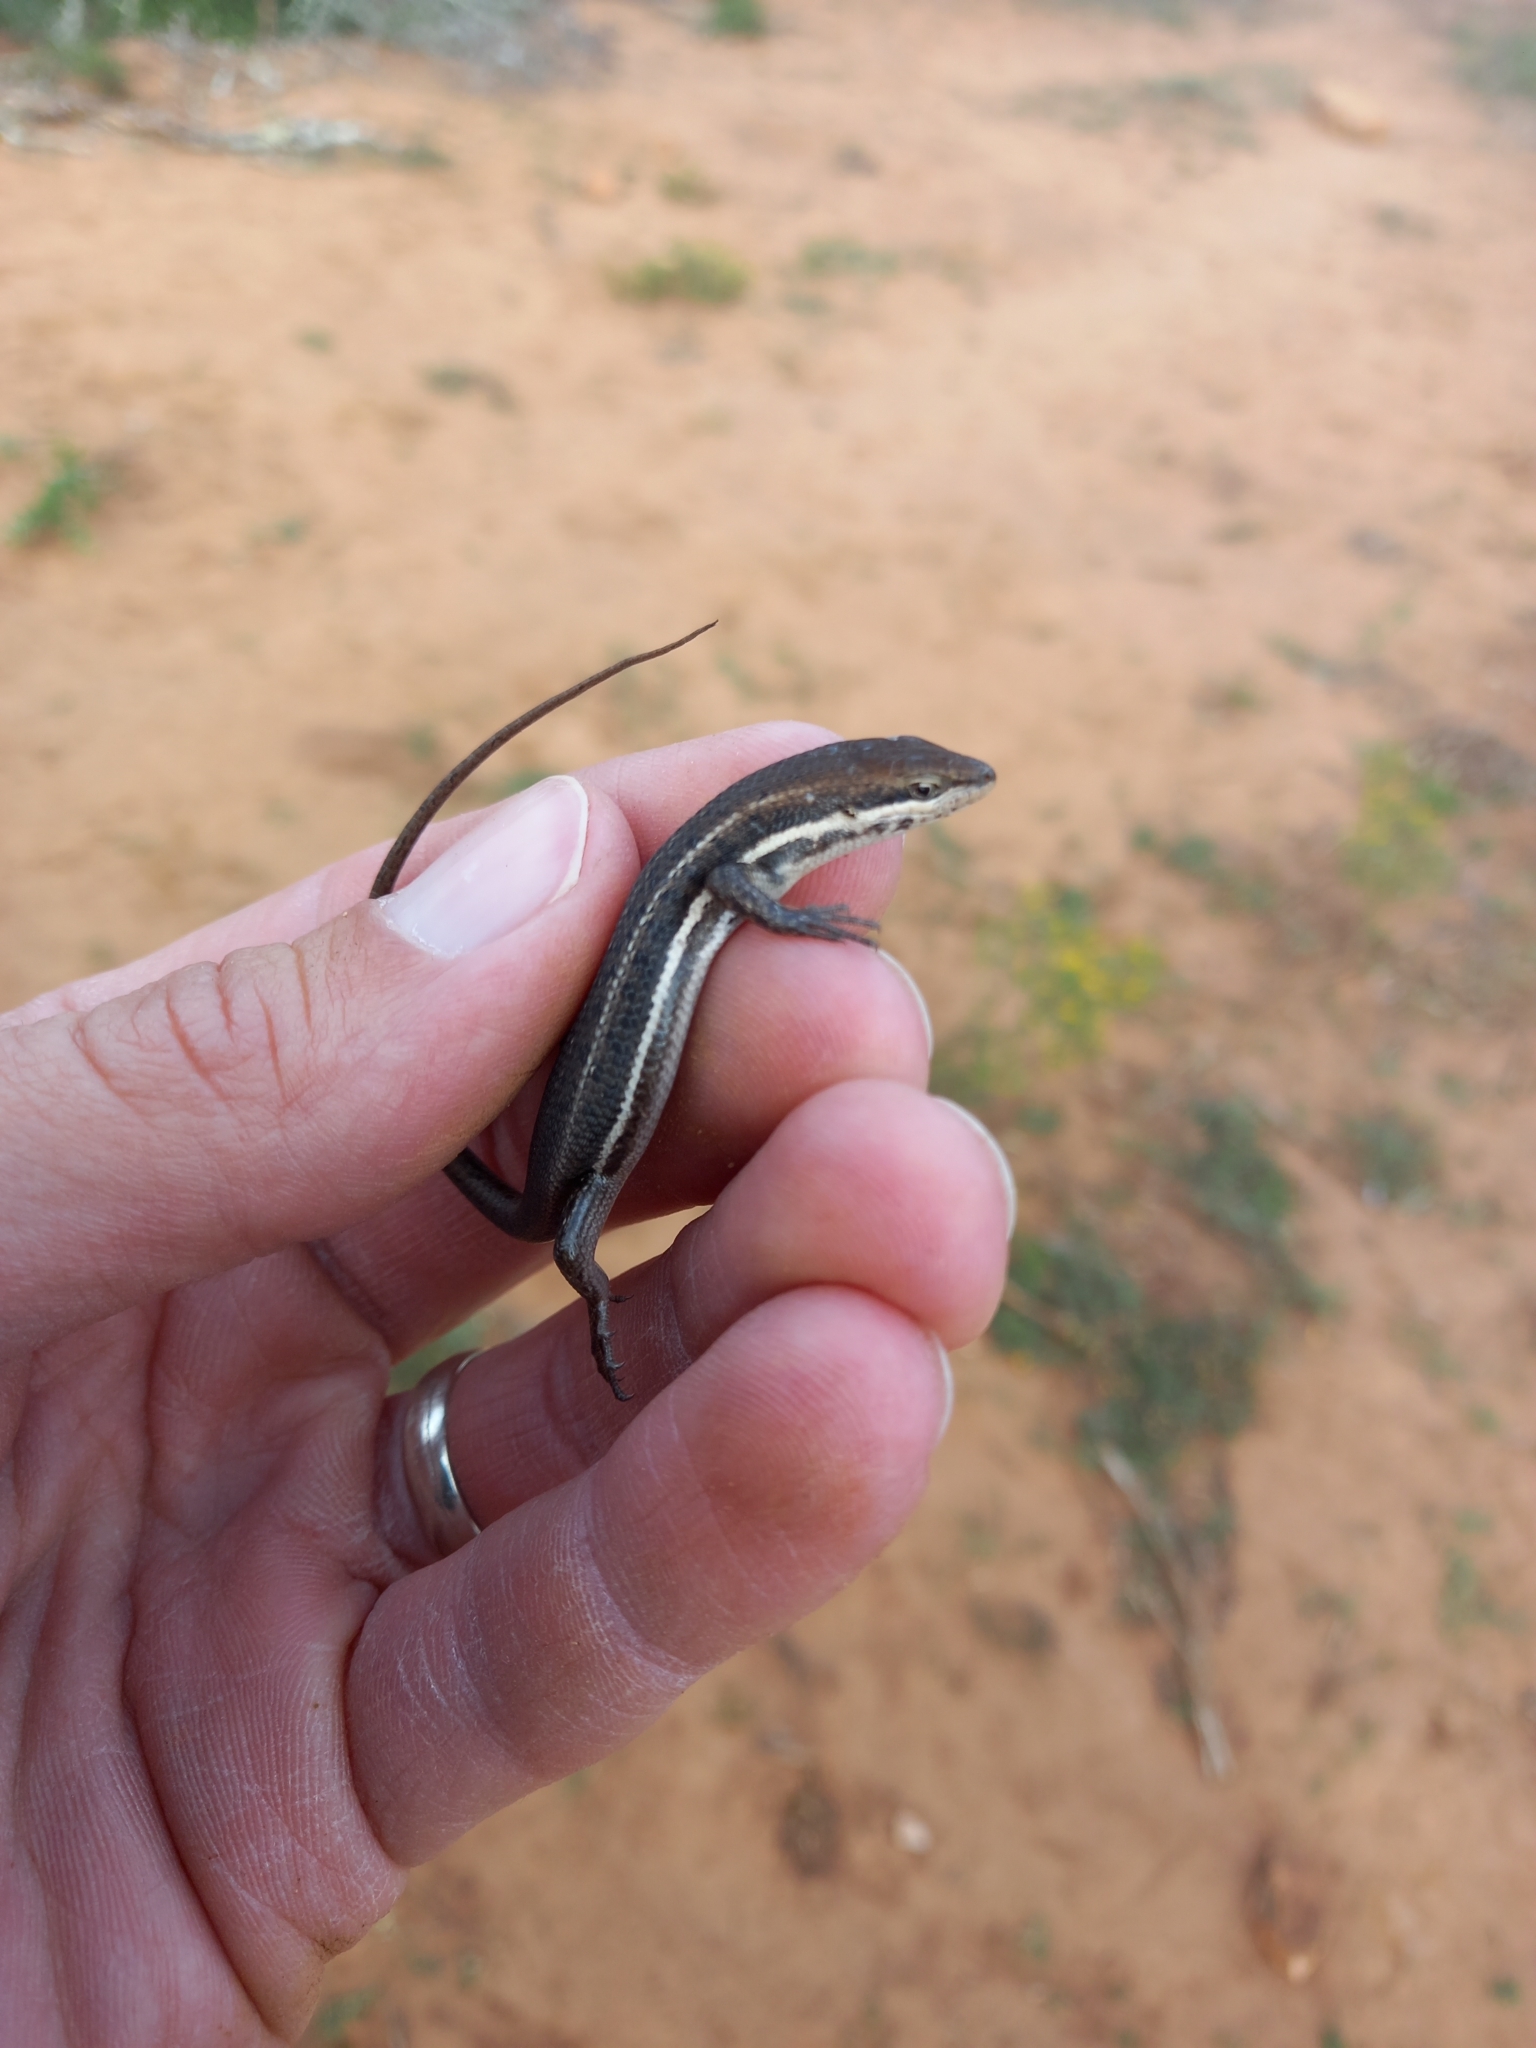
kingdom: Animalia
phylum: Chordata
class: Squamata
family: Scincidae
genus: Trachylepis
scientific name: Trachylepis varia
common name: Eastern variable skink
